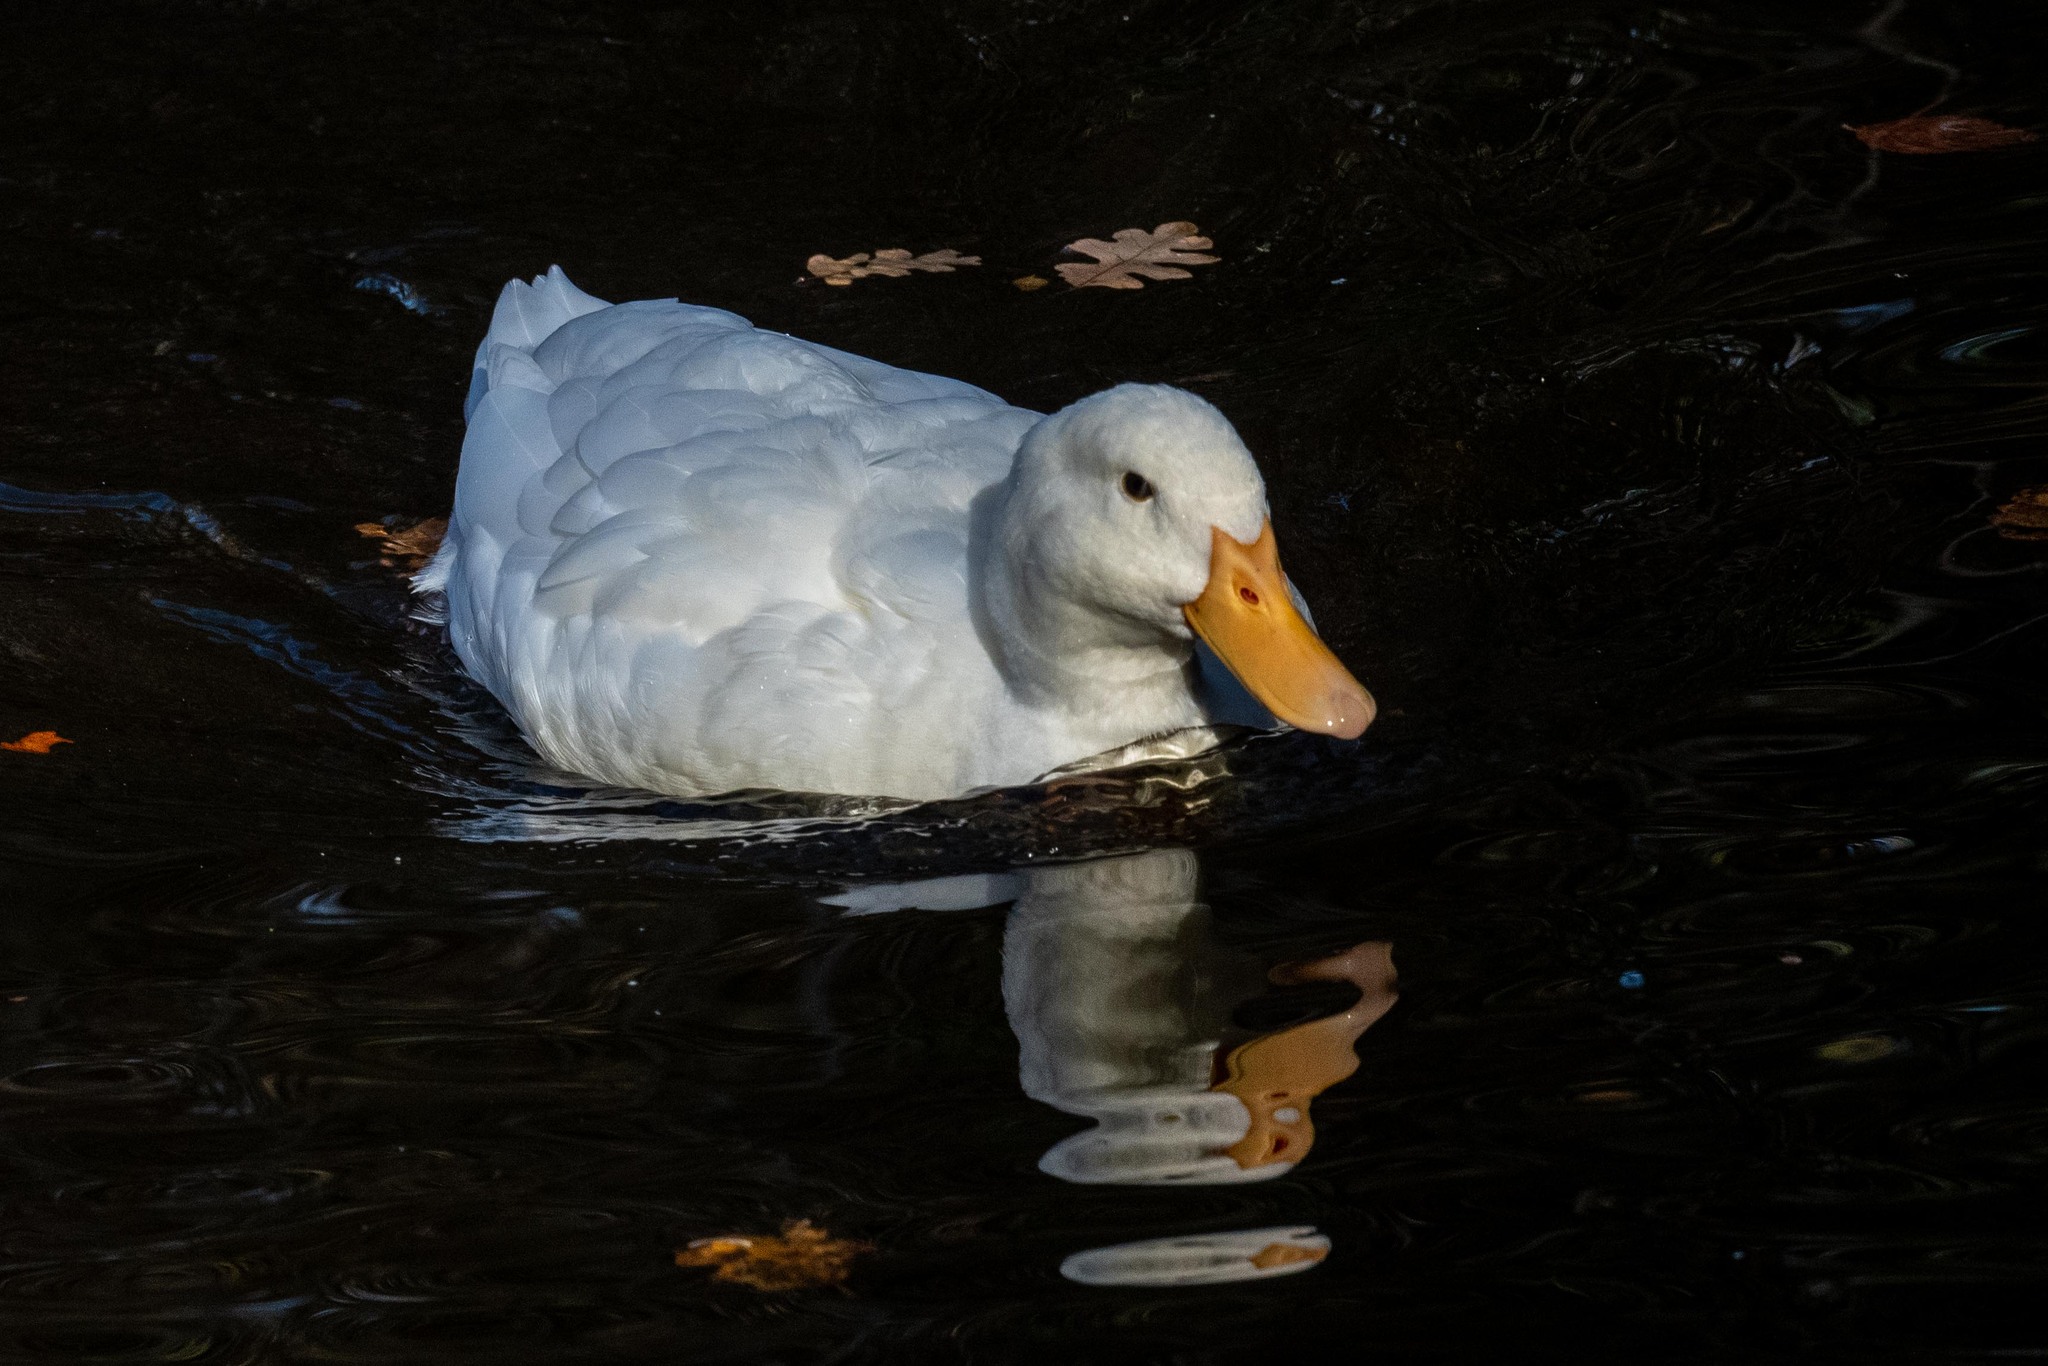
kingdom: Animalia
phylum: Chordata
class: Aves
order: Anseriformes
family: Anatidae
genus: Anas
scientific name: Anas platyrhynchos
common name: Mallard
